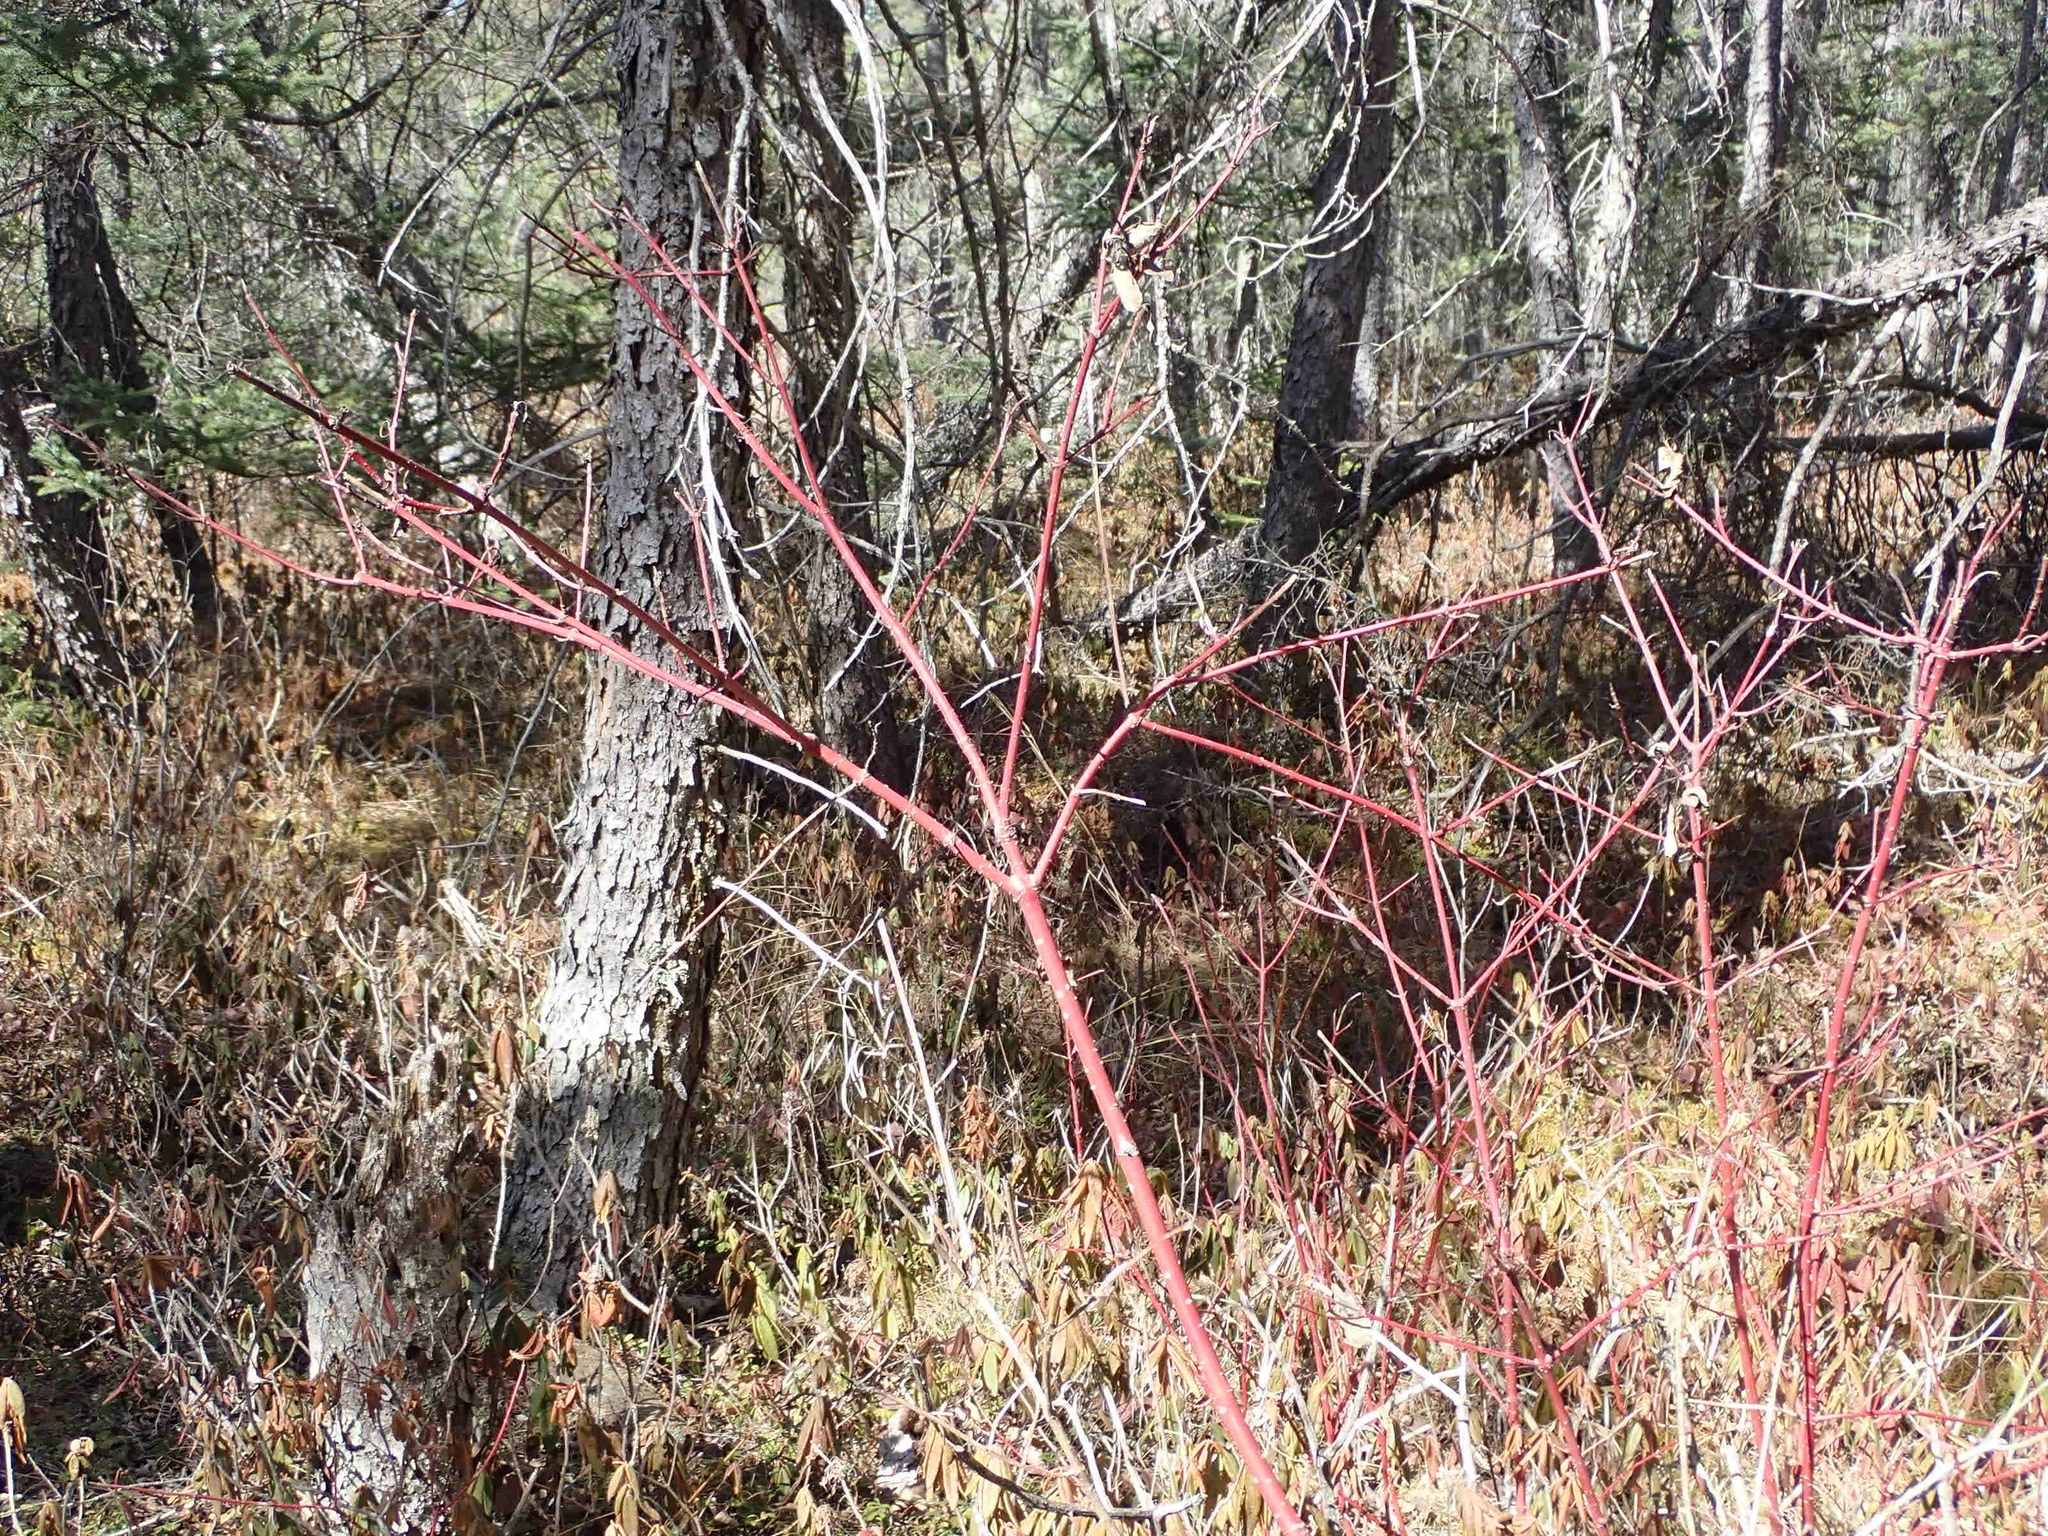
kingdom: Plantae
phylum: Tracheophyta
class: Magnoliopsida
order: Cornales
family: Cornaceae
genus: Cornus
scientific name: Cornus sericea
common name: Red-osier dogwood
